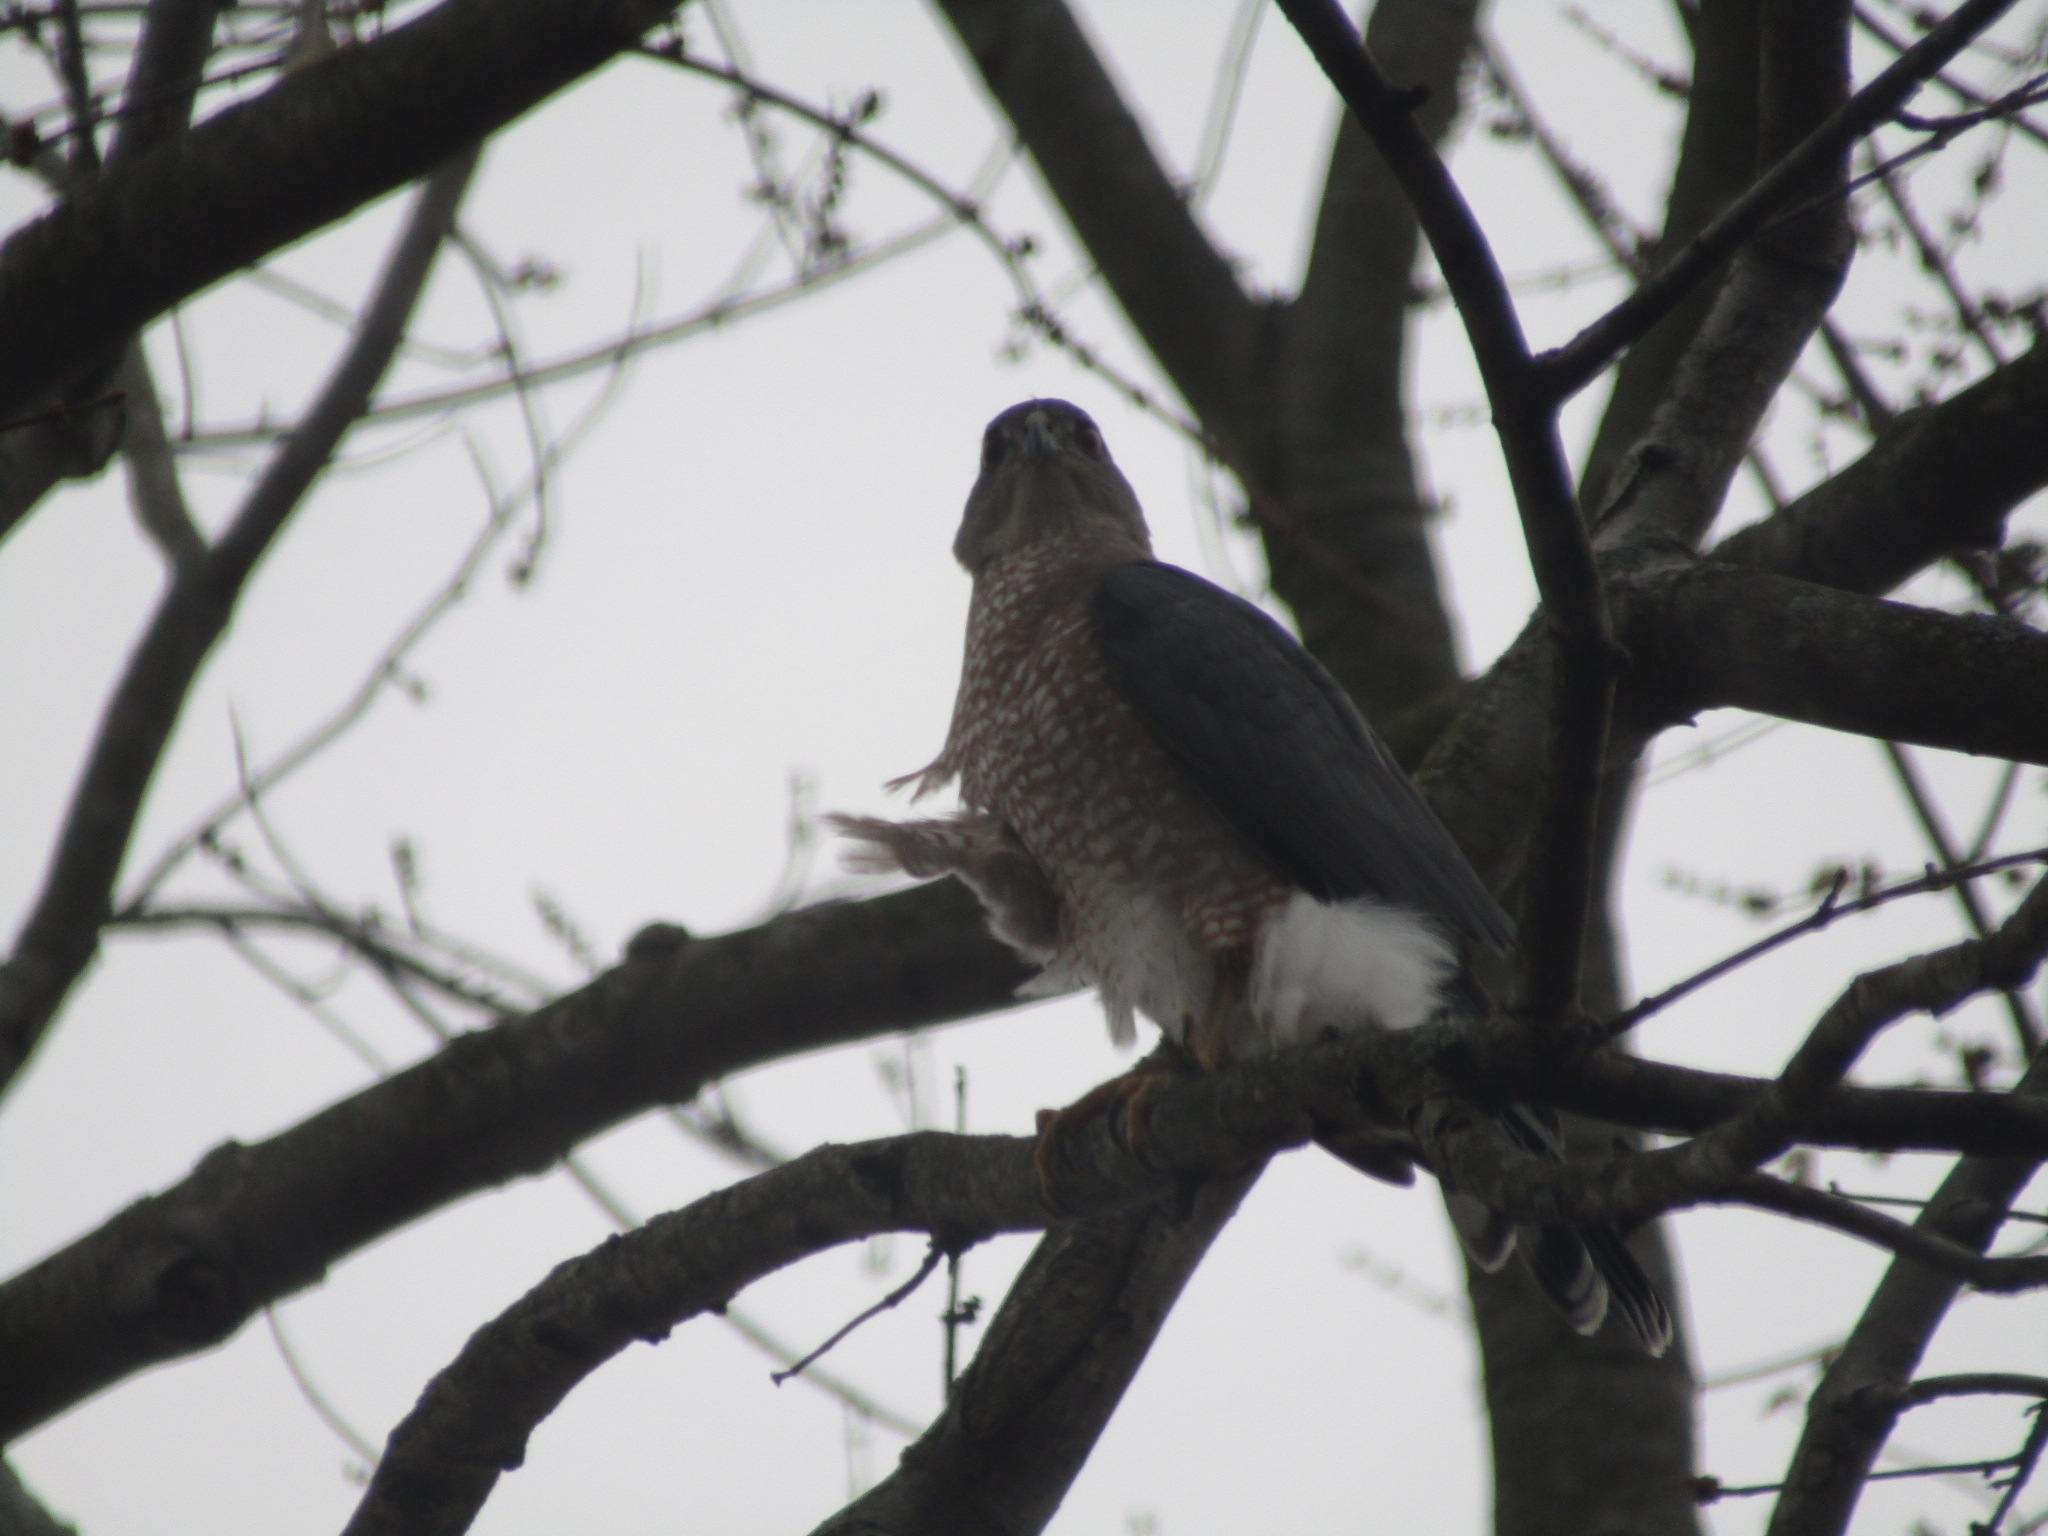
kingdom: Animalia
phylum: Chordata
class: Aves
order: Accipitriformes
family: Accipitridae
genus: Accipiter
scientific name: Accipiter cooperii
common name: Cooper's hawk
